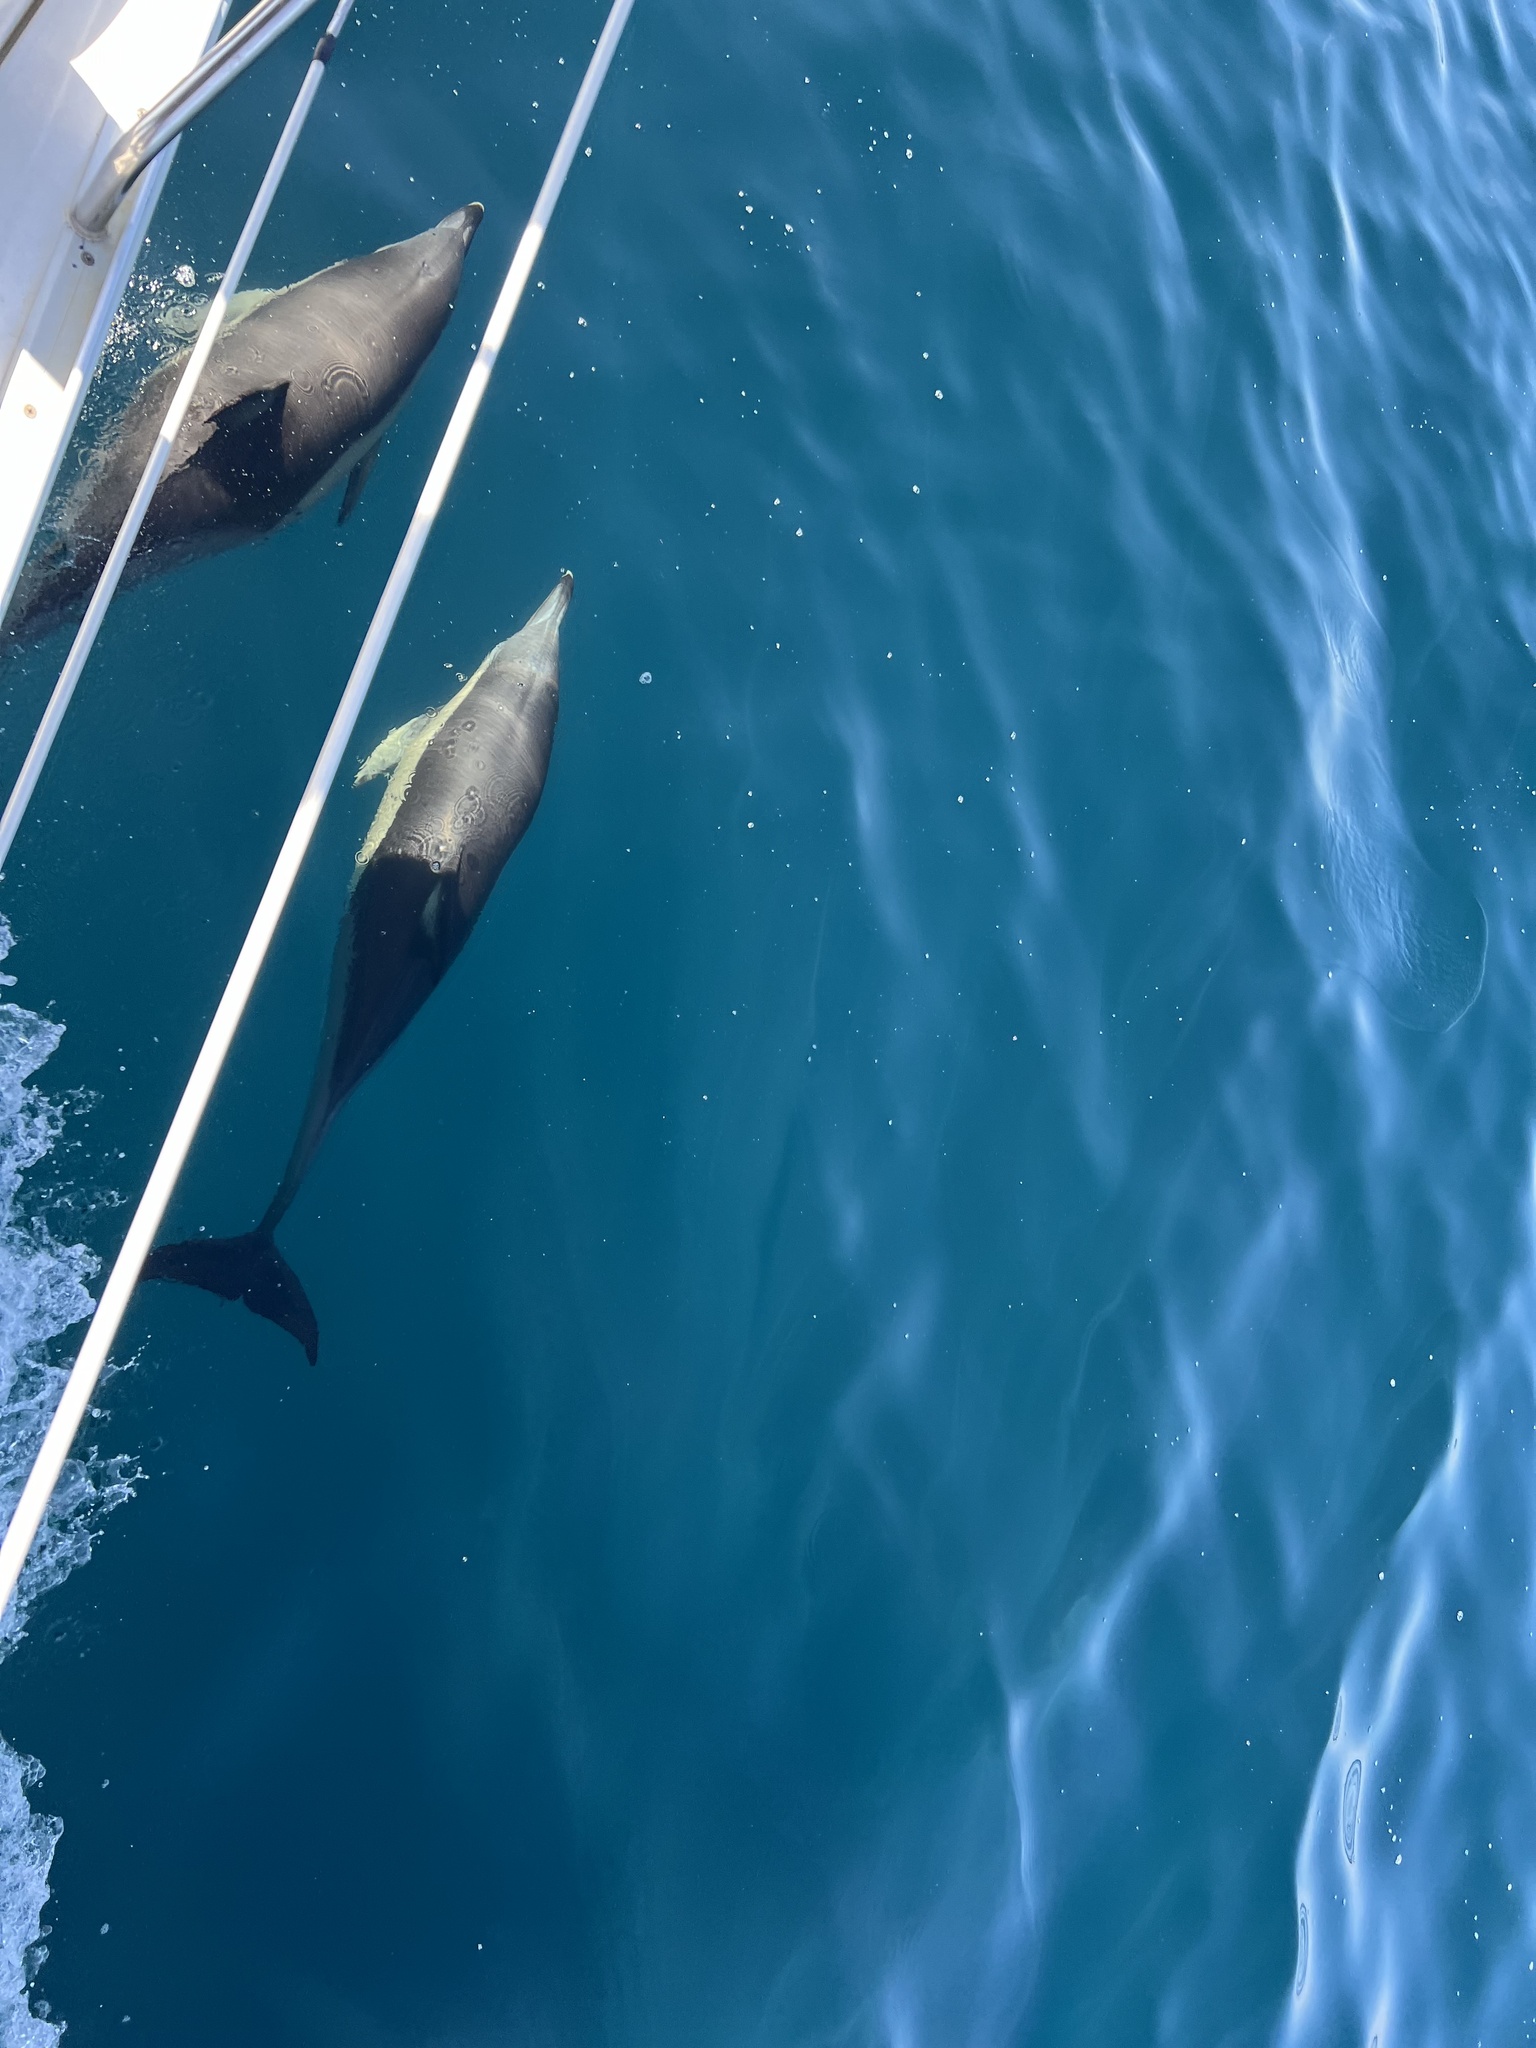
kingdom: Animalia
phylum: Chordata
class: Mammalia
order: Cetacea
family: Delphinidae
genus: Delphinus
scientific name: Delphinus delphis
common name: Common dolphin
